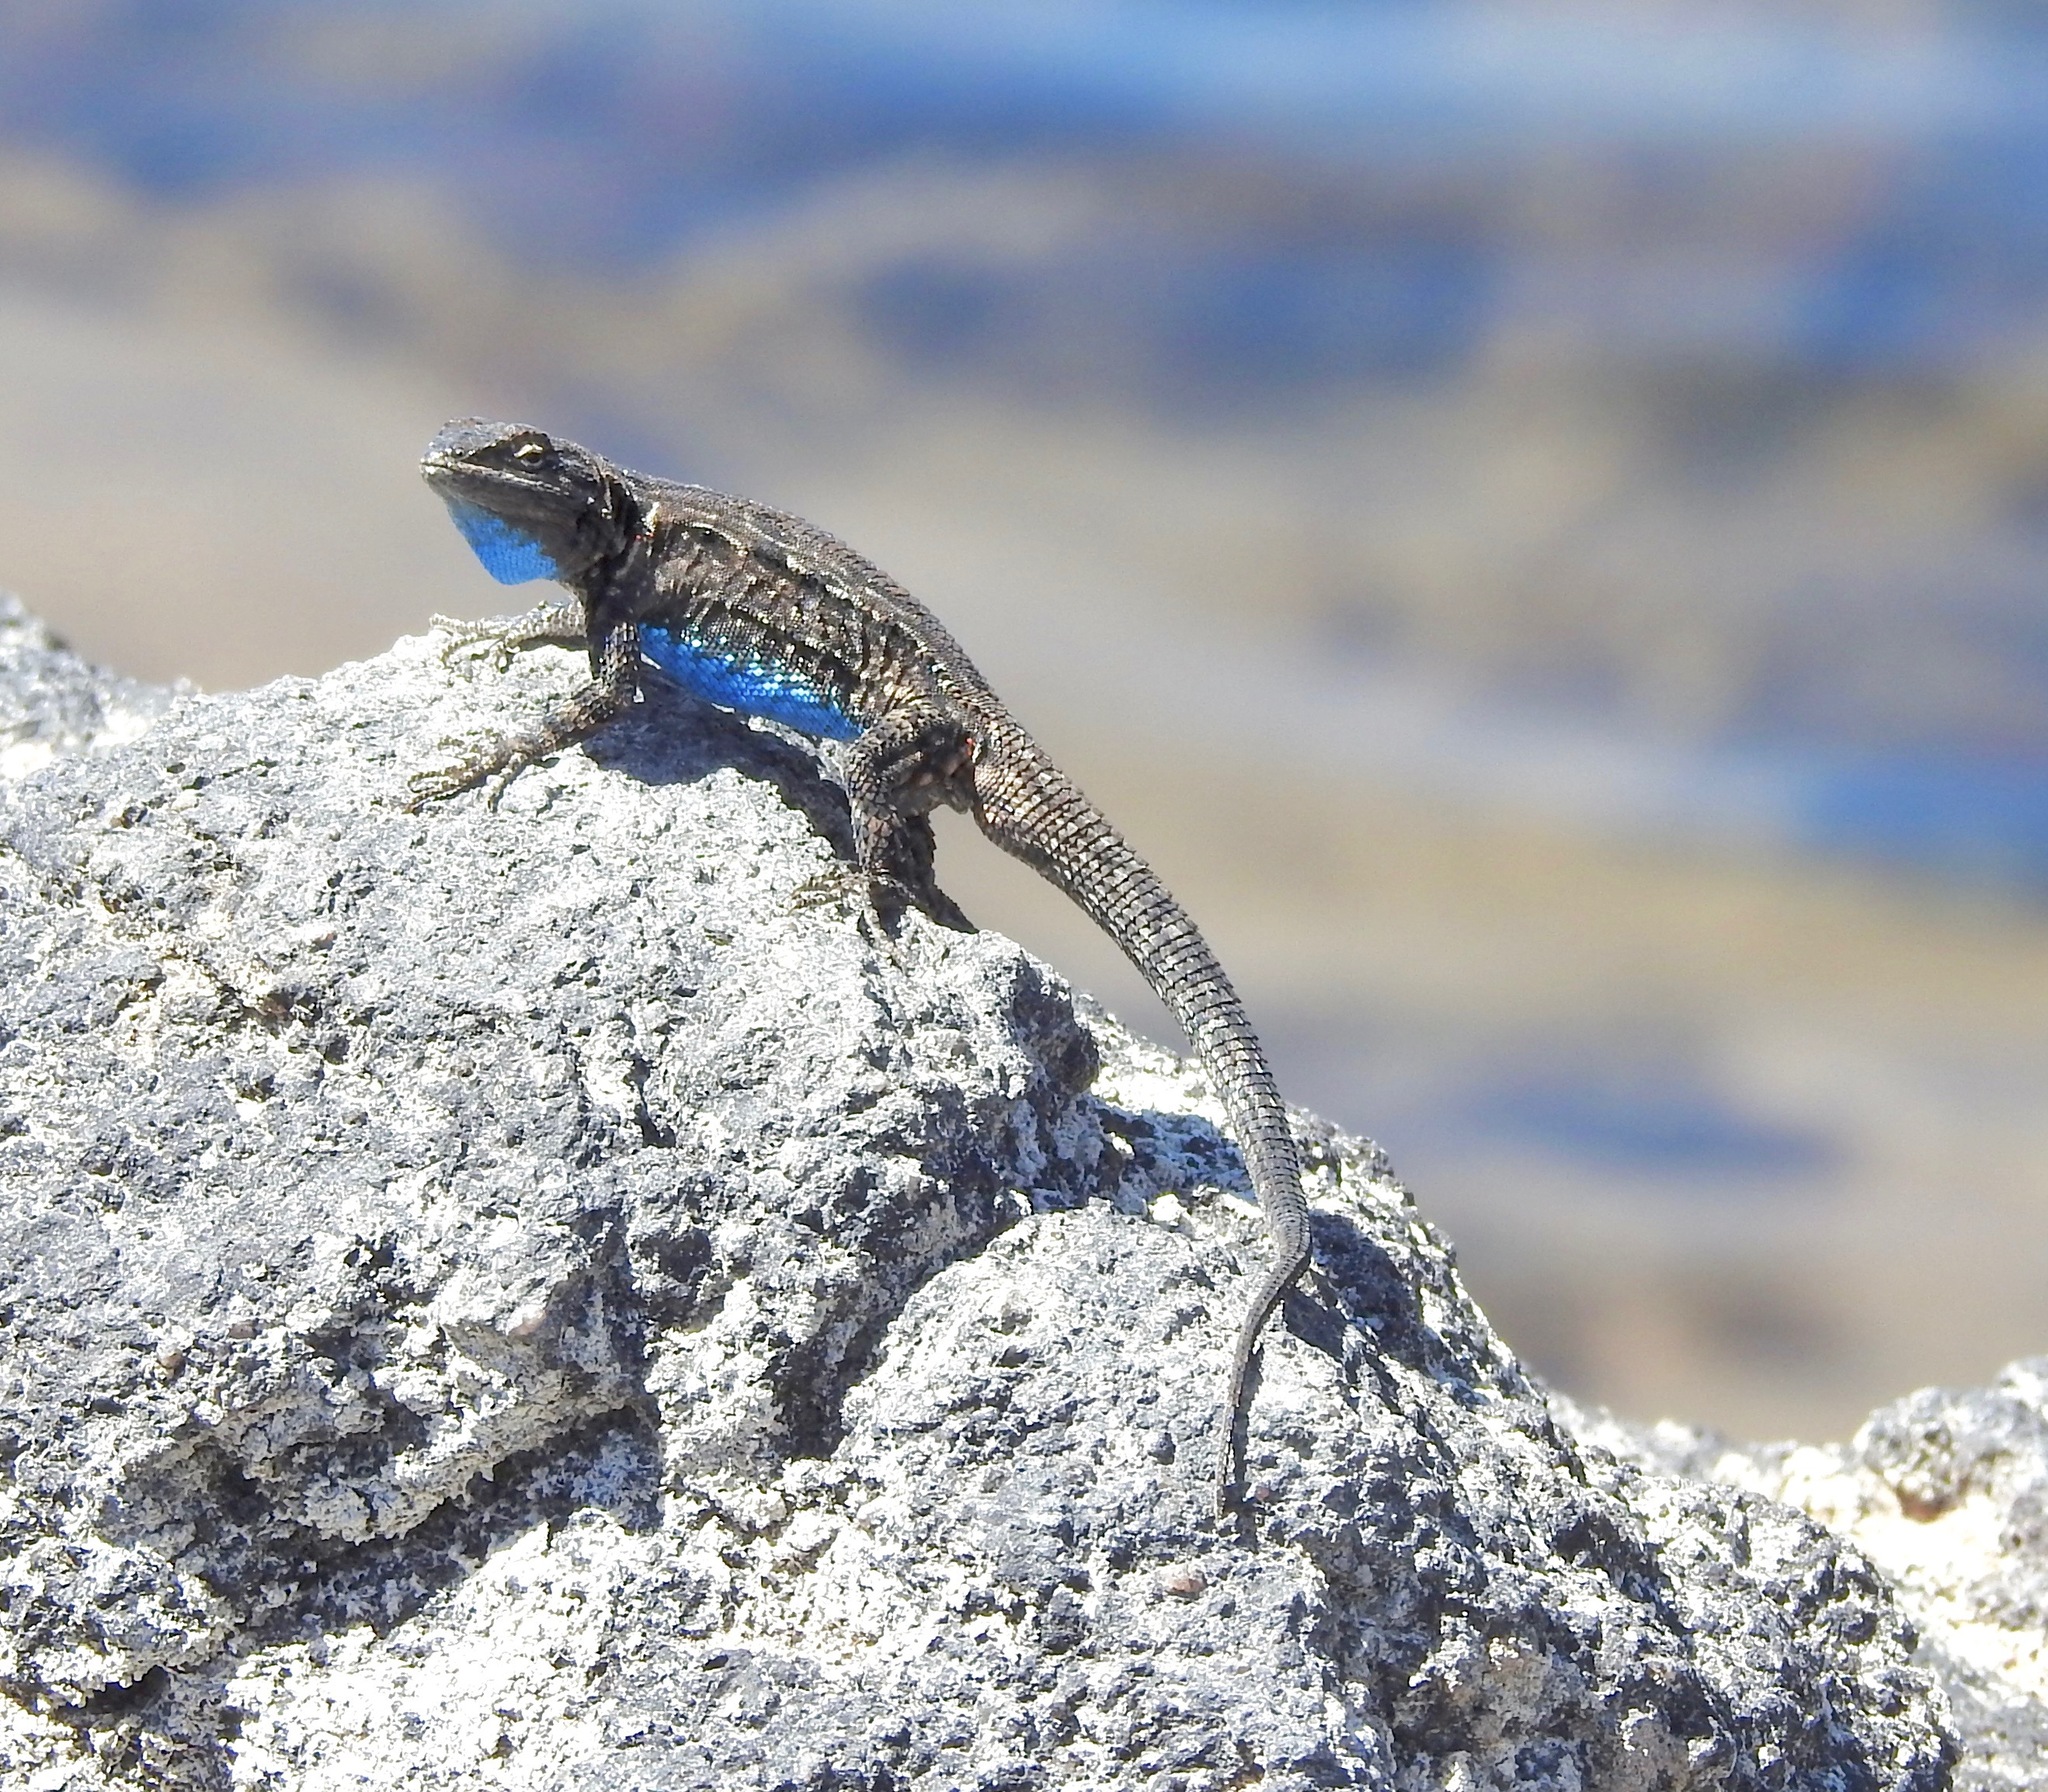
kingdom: Animalia
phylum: Chordata
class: Squamata
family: Phrynosomatidae
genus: Urosaurus
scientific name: Urosaurus ornatus
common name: Ornate tree lizard
